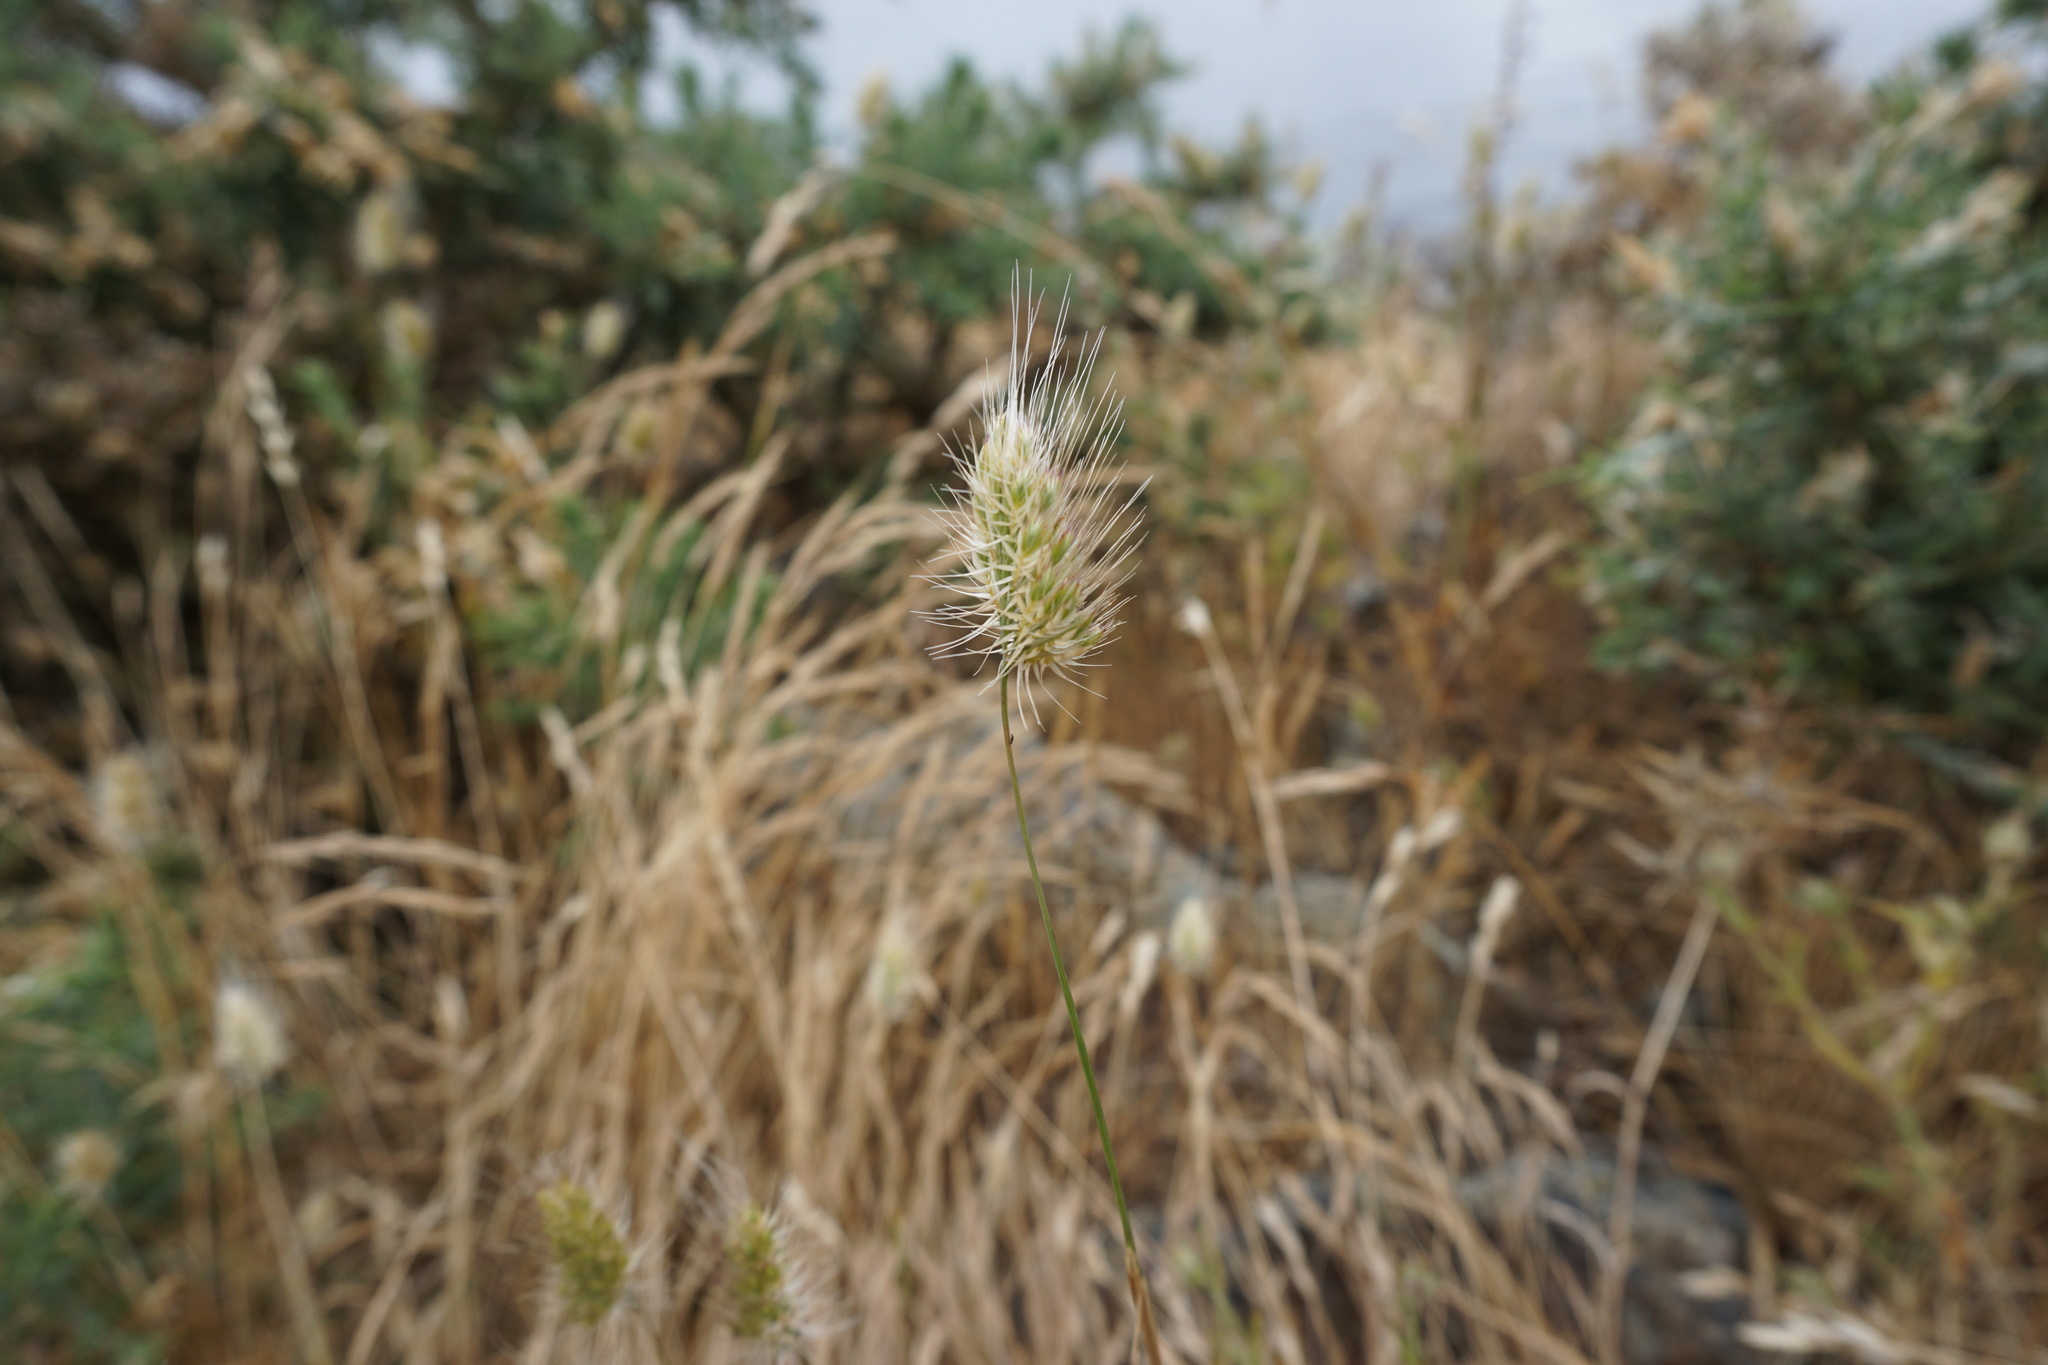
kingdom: Plantae
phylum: Tracheophyta
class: Liliopsida
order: Poales
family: Poaceae
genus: Cynosurus
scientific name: Cynosurus echinatus
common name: Rough dog's-tail
